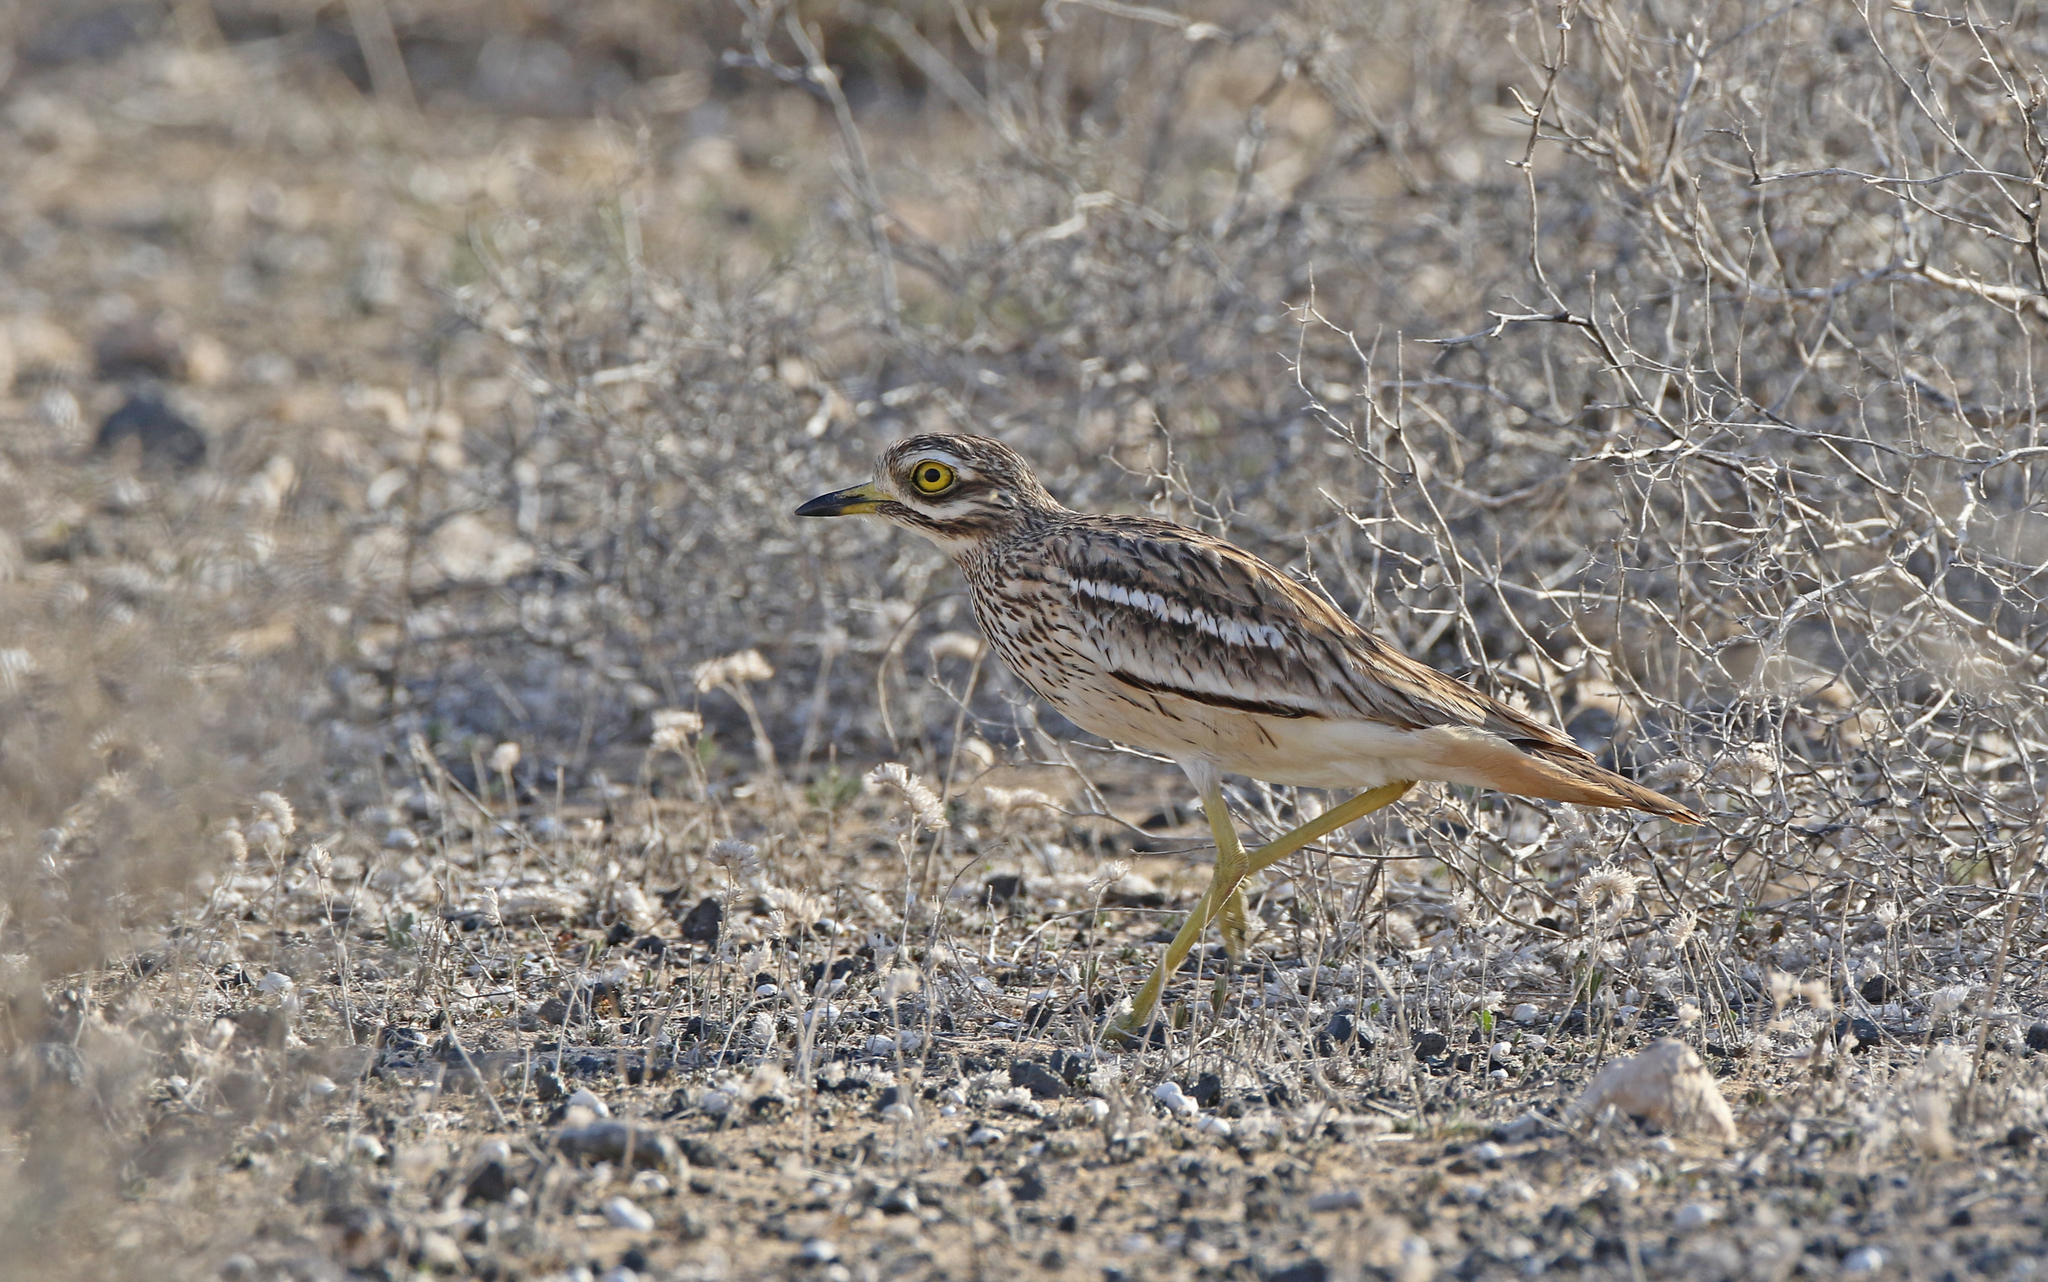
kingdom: Animalia
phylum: Chordata
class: Aves
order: Charadriiformes
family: Burhinidae
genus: Burhinus
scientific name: Burhinus oedicnemus
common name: Eurasian stone-curlew
